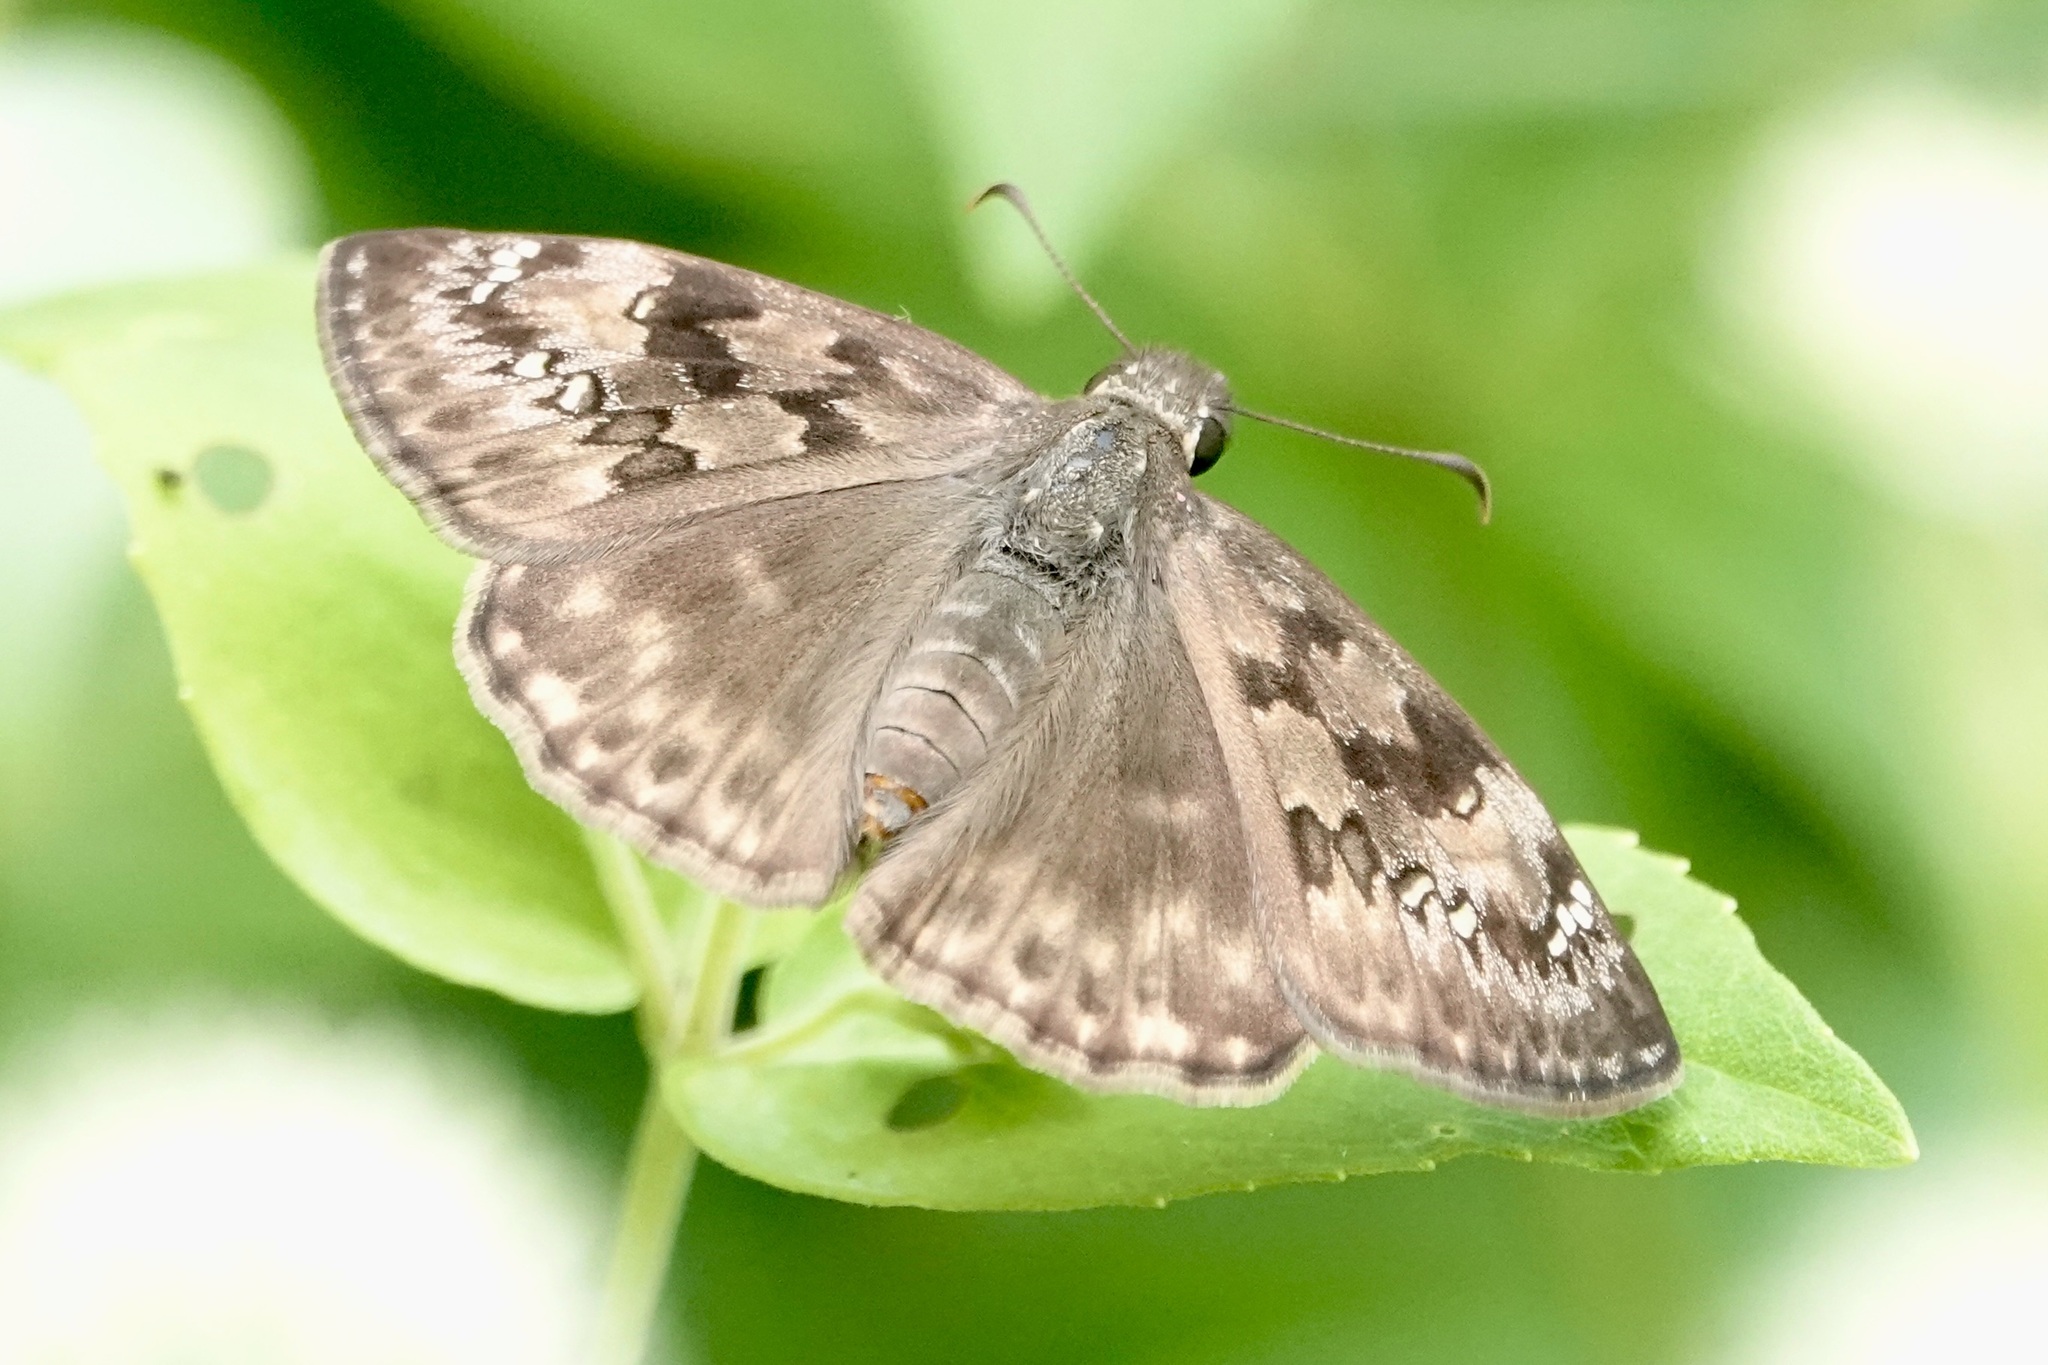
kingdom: Animalia
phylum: Arthropoda
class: Insecta
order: Lepidoptera
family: Hesperiidae
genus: Erynnis
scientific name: Erynnis horatius
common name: Horace's duskywing
